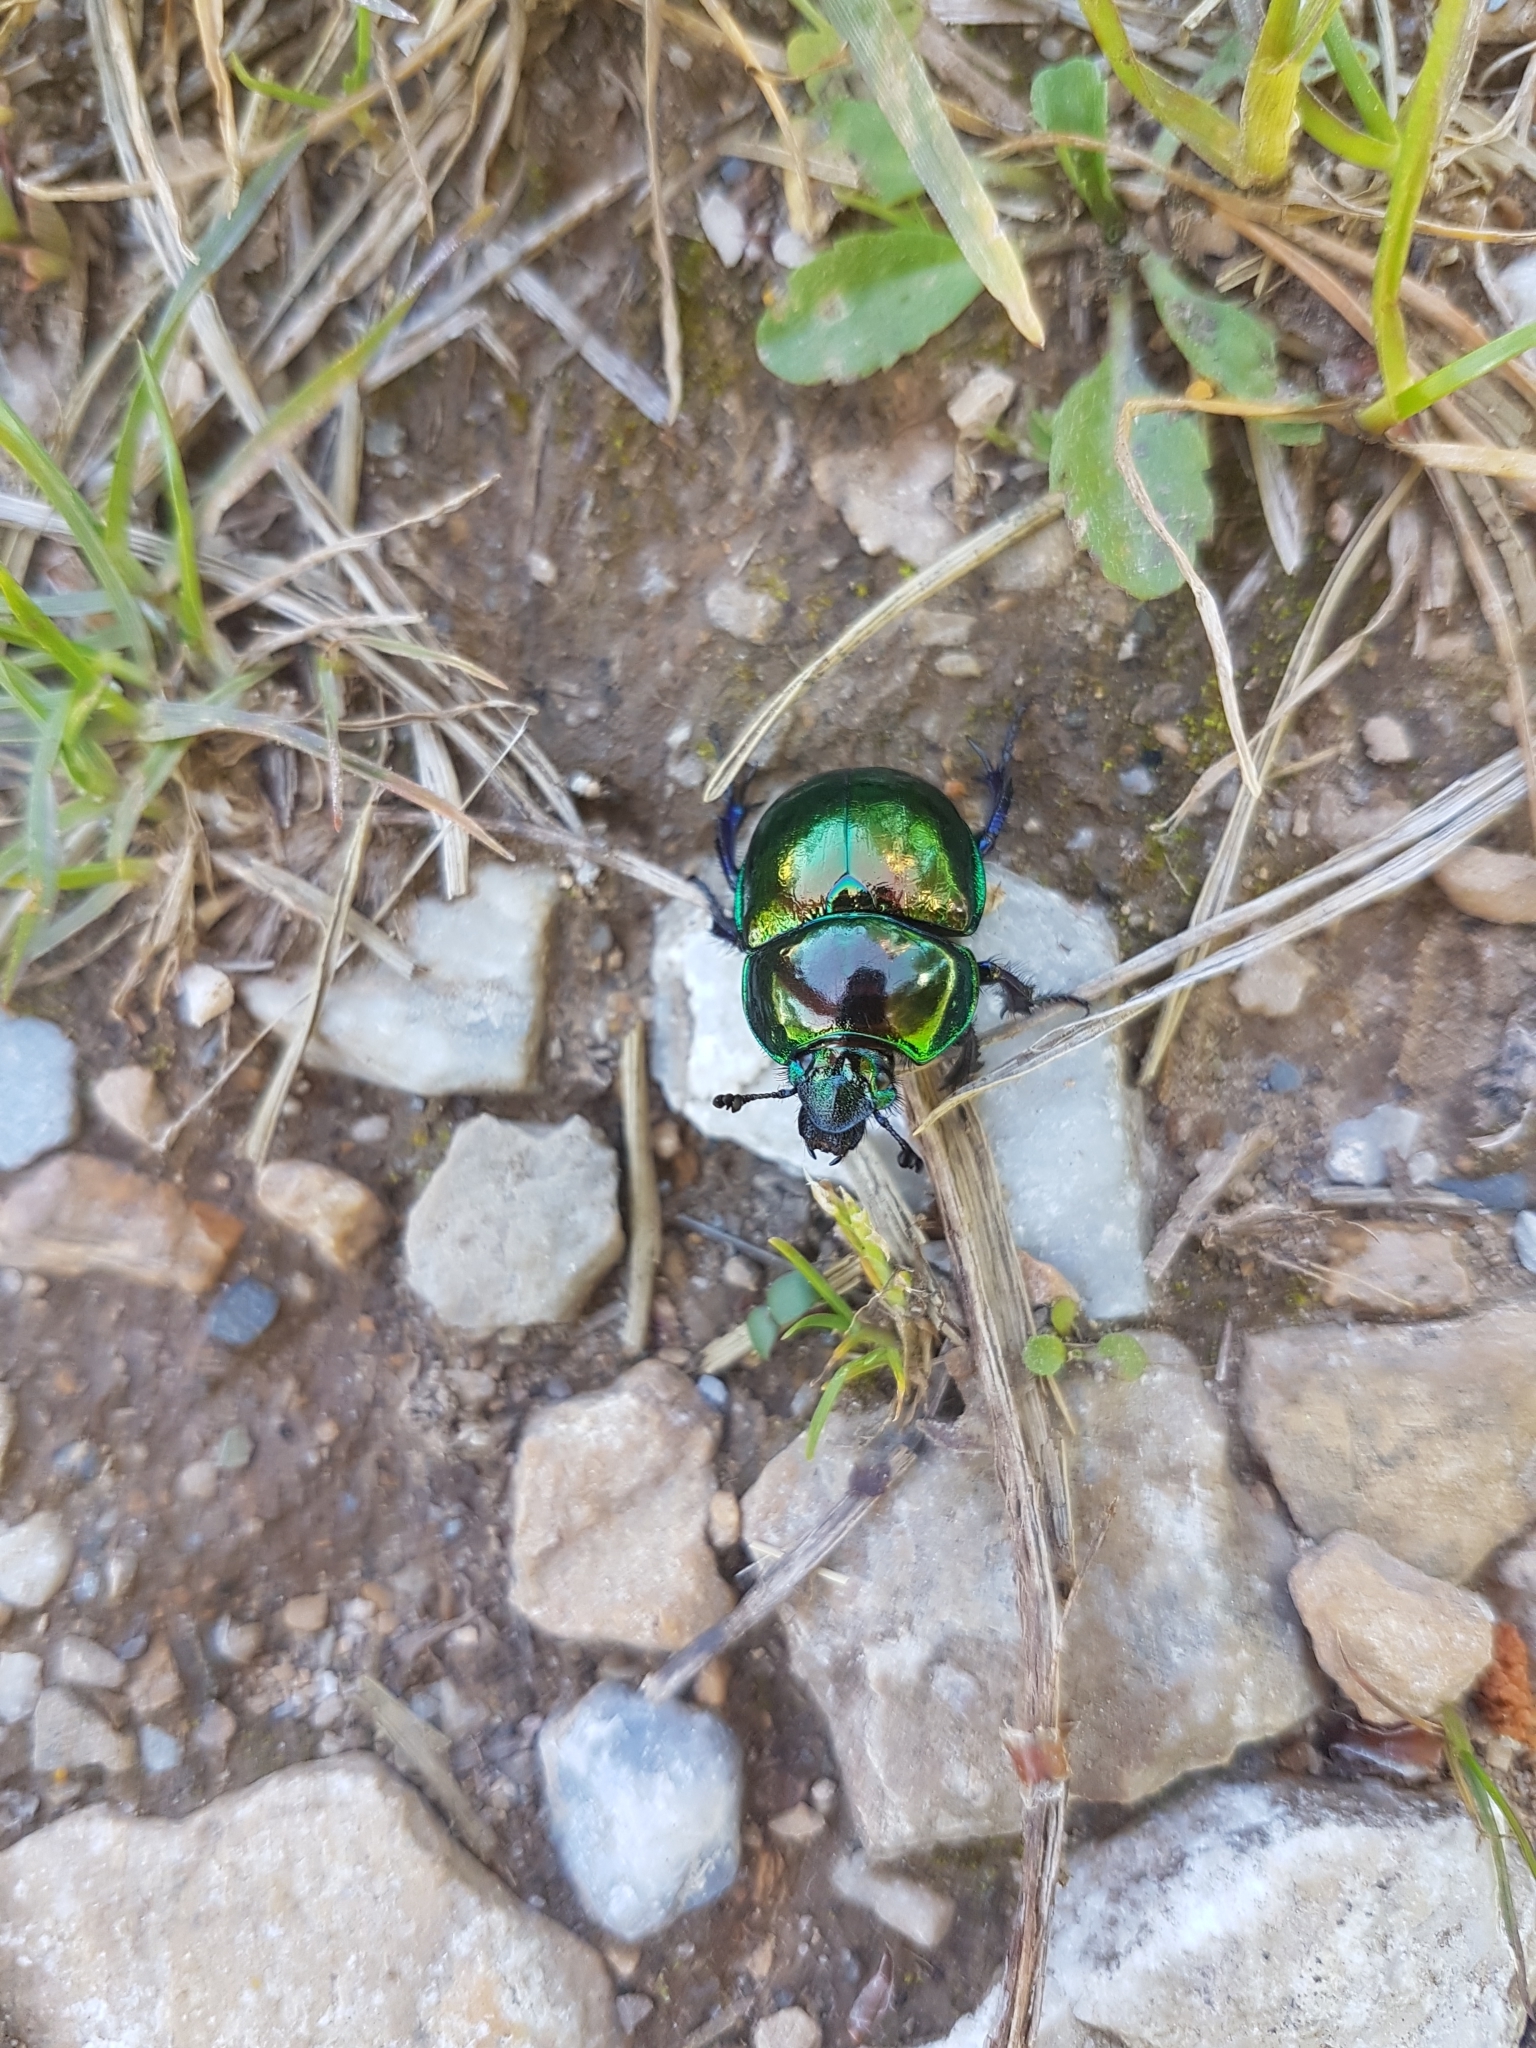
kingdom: Animalia
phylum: Arthropoda
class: Insecta
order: Coleoptera
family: Geotrupidae
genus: Trypocopris
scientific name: Trypocopris pyrenaeus
